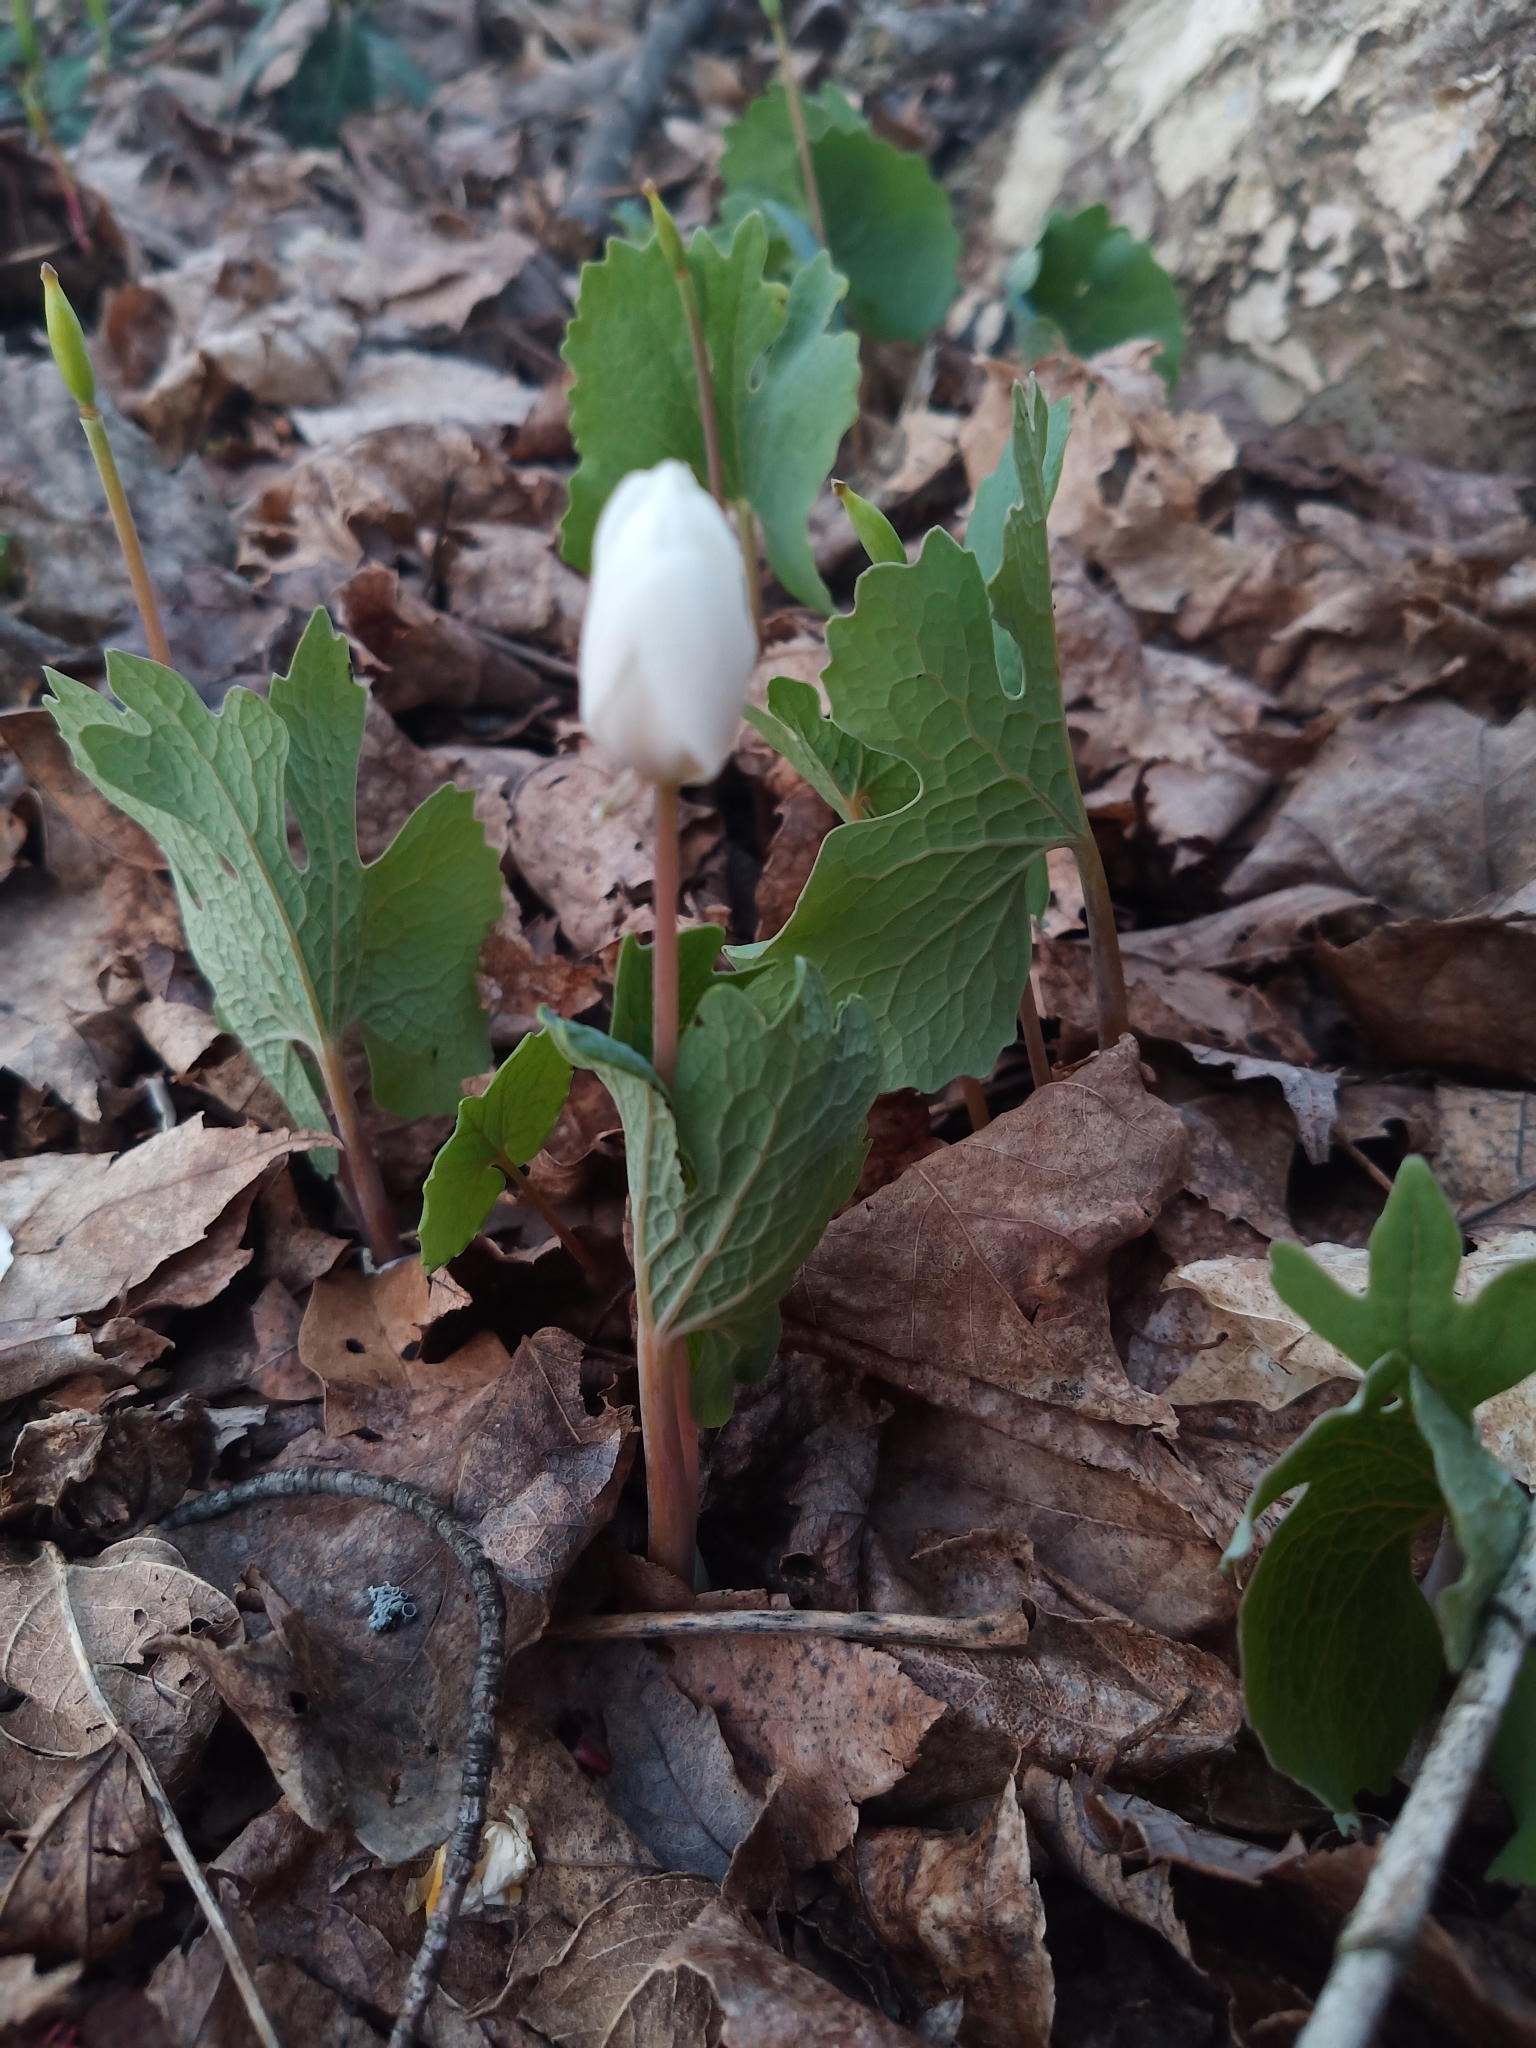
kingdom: Plantae
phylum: Tracheophyta
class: Magnoliopsida
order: Ranunculales
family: Papaveraceae
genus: Sanguinaria
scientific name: Sanguinaria canadensis
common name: Bloodroot
